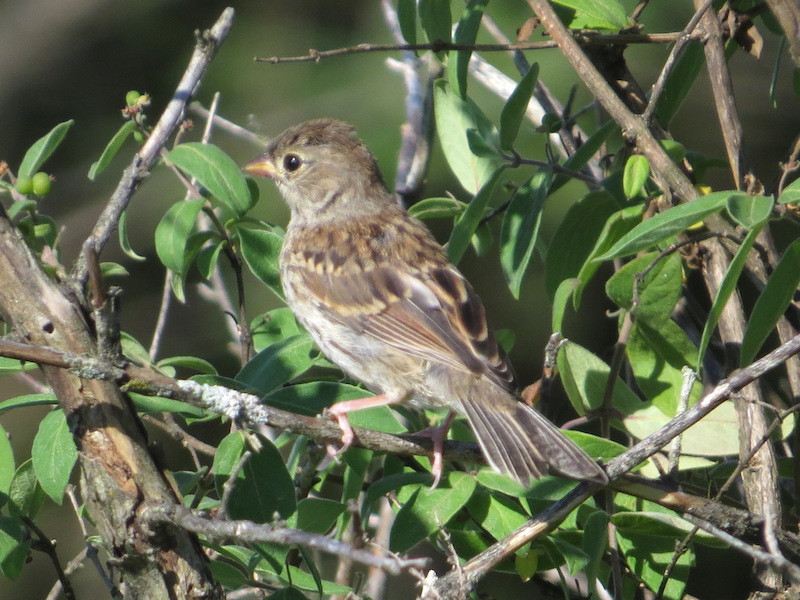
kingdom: Animalia
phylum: Chordata
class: Aves
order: Passeriformes
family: Passerellidae
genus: Spizella
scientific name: Spizella pusilla
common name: Field sparrow
